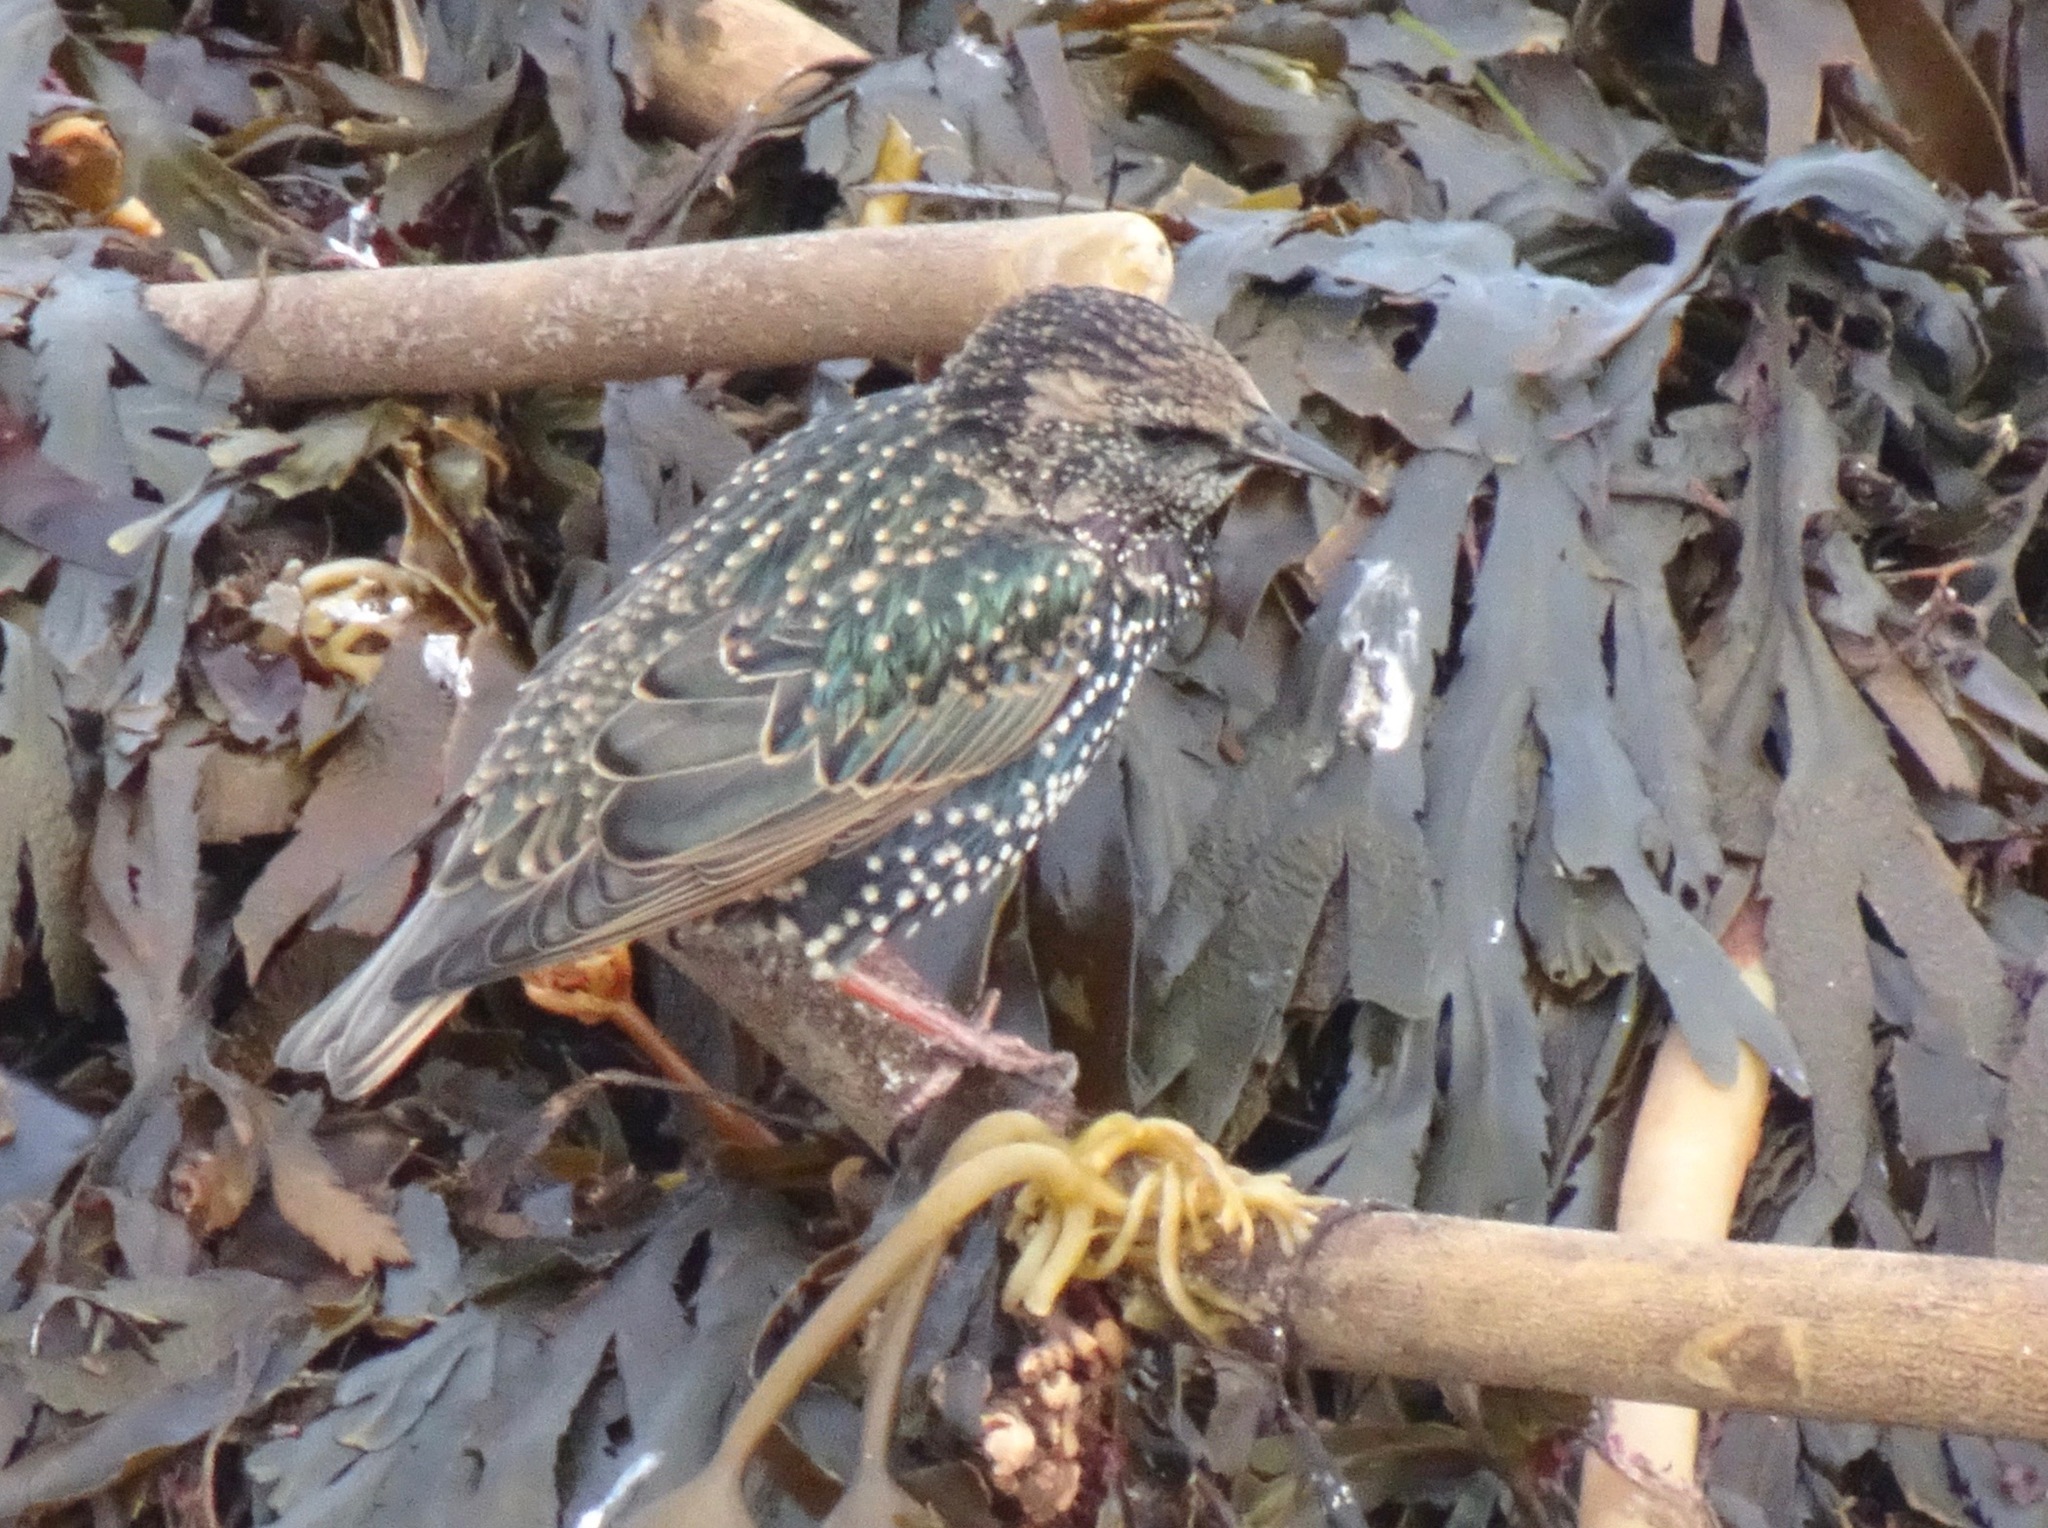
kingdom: Animalia
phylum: Chordata
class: Aves
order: Passeriformes
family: Sturnidae
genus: Sturnus
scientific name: Sturnus vulgaris
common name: Common starling
